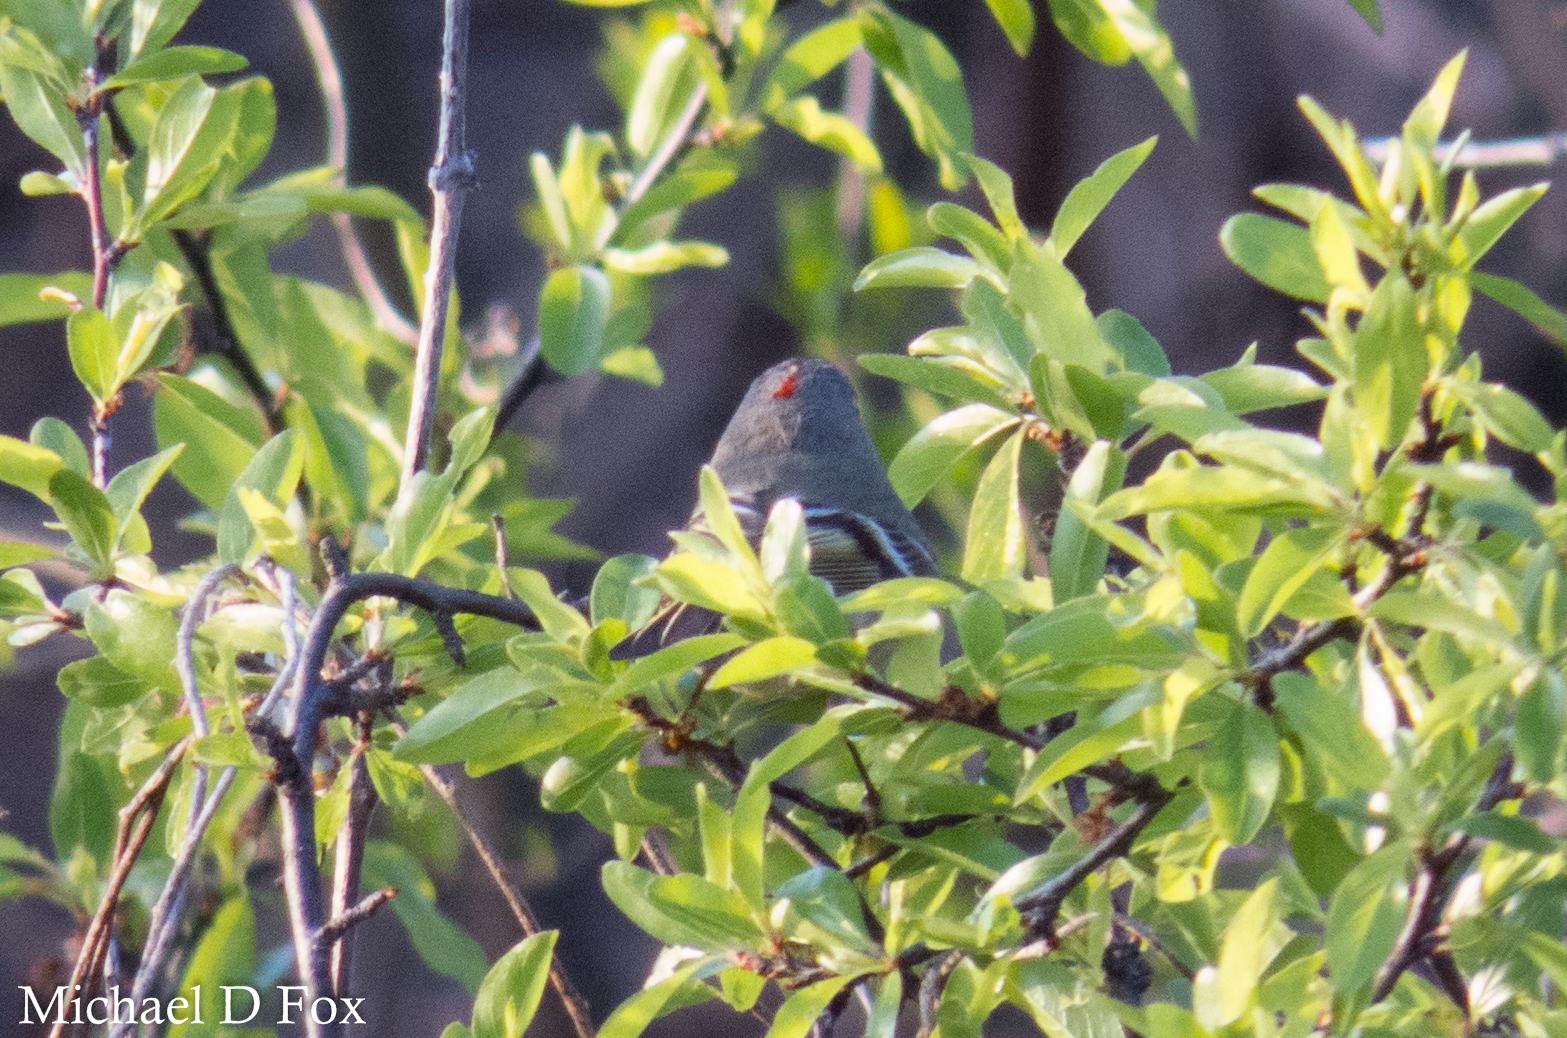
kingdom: Animalia
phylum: Chordata
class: Aves
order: Passeriformes
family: Regulidae
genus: Regulus
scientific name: Regulus calendula
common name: Ruby-crowned kinglet
